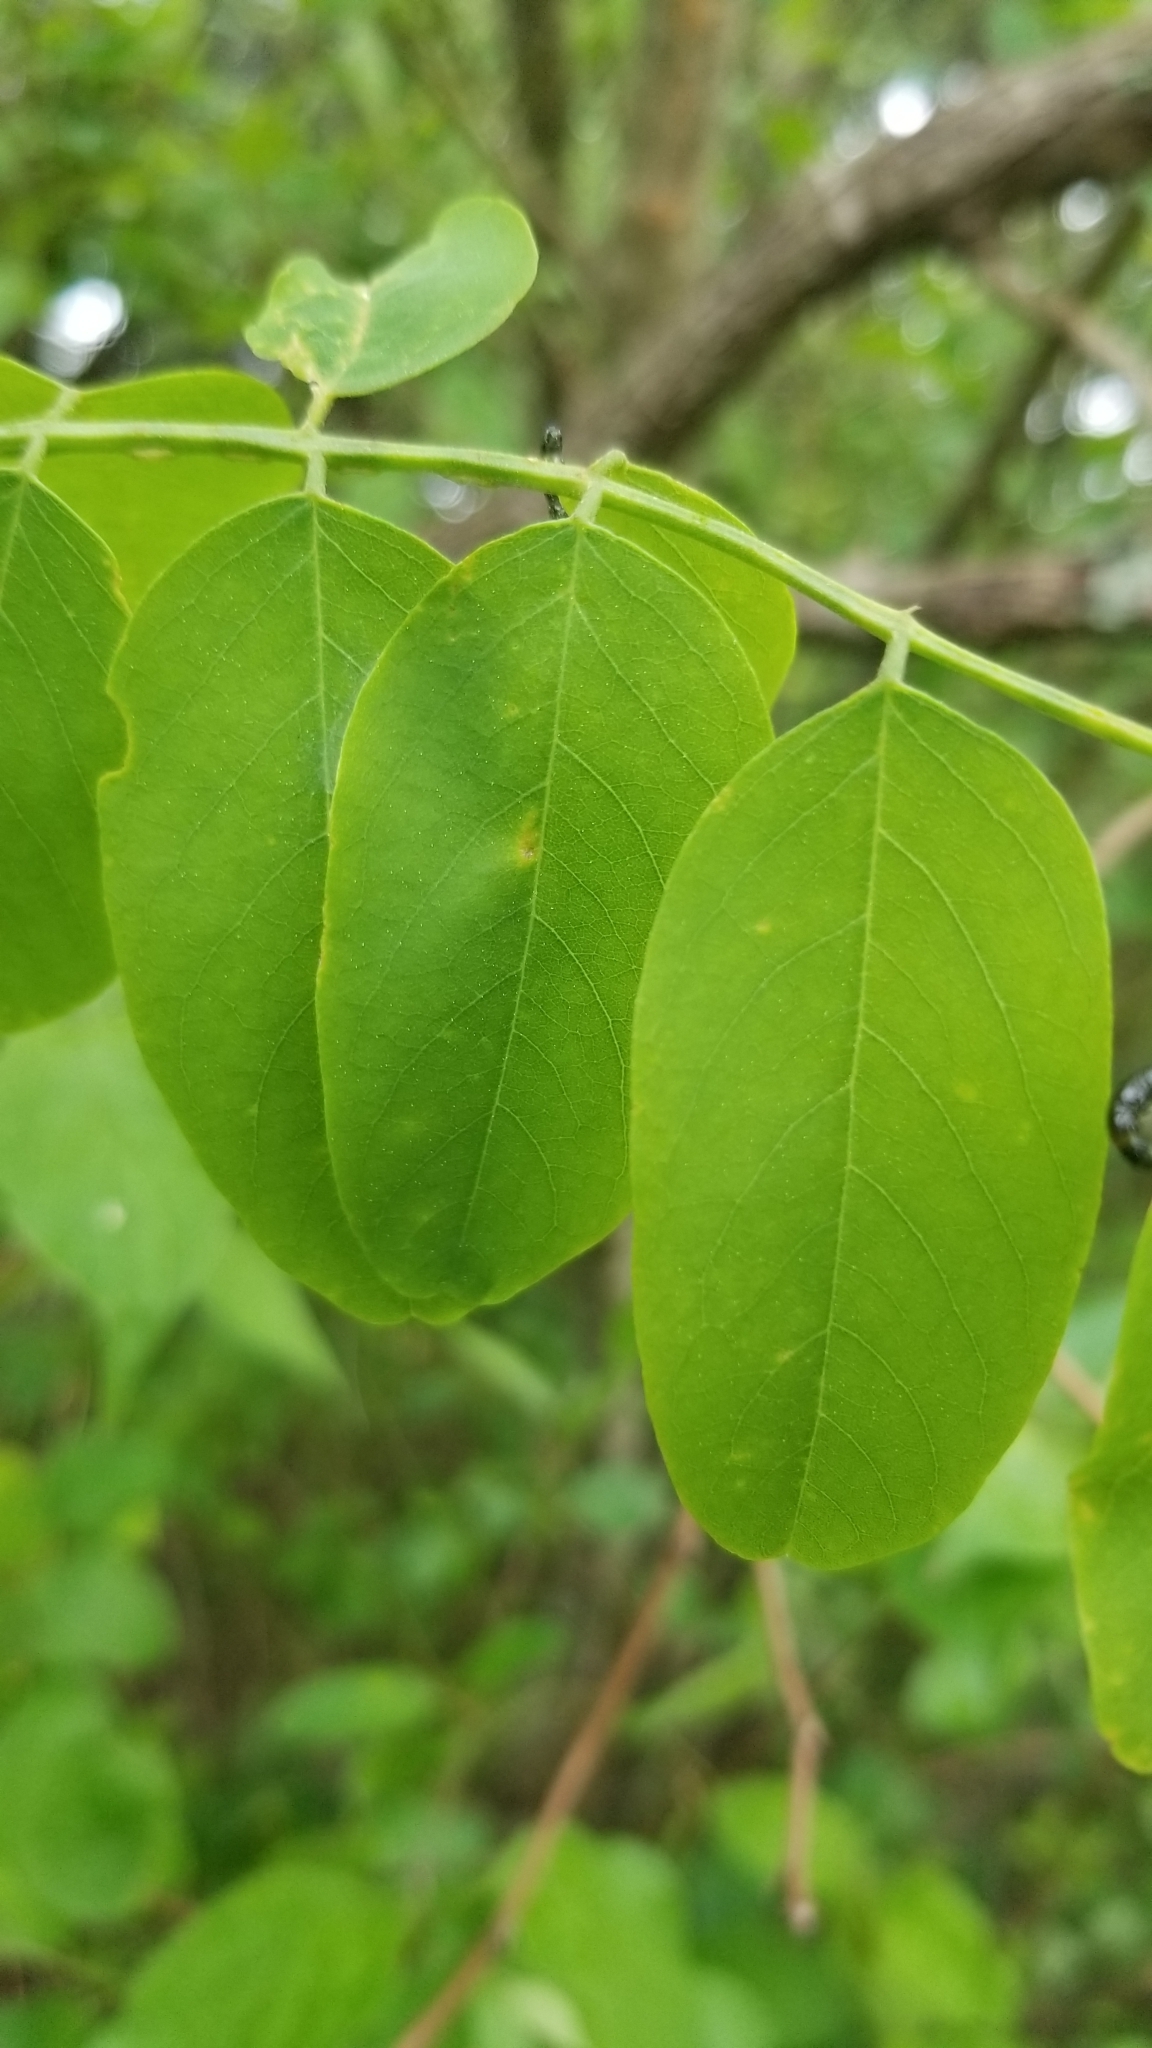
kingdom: Plantae
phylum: Tracheophyta
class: Magnoliopsida
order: Fabales
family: Fabaceae
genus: Robinia
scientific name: Robinia pseudoacacia
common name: Black locust
